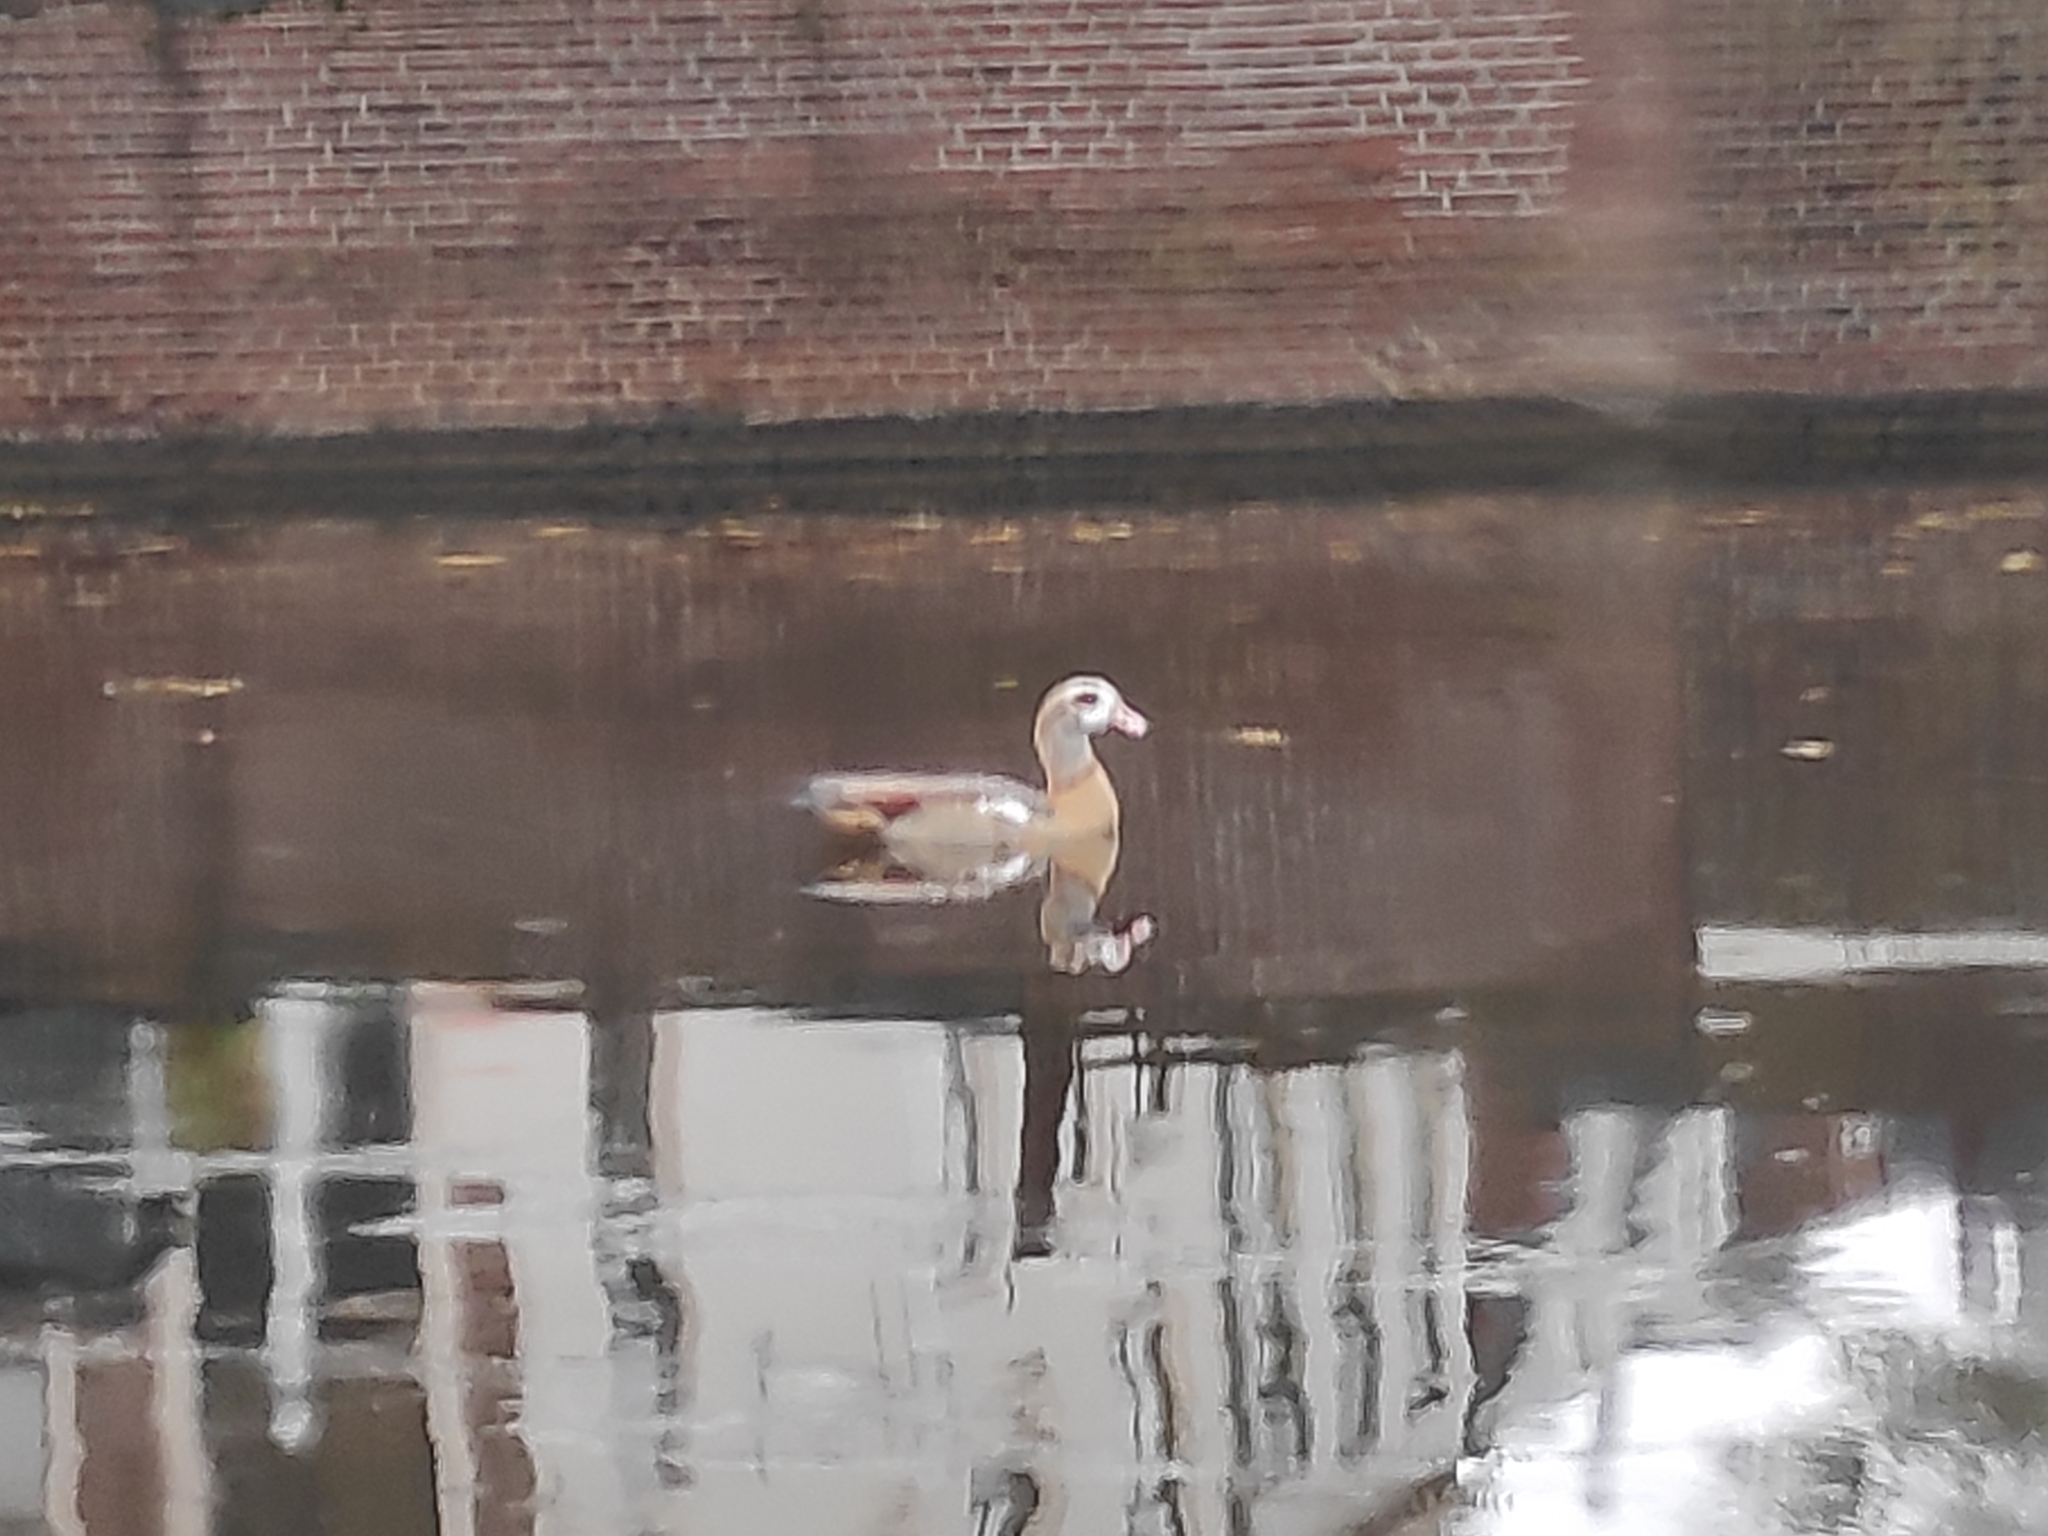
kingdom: Animalia
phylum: Chordata
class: Aves
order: Anseriformes
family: Anatidae
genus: Alopochen
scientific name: Alopochen aegyptiaca
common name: Egyptian goose
